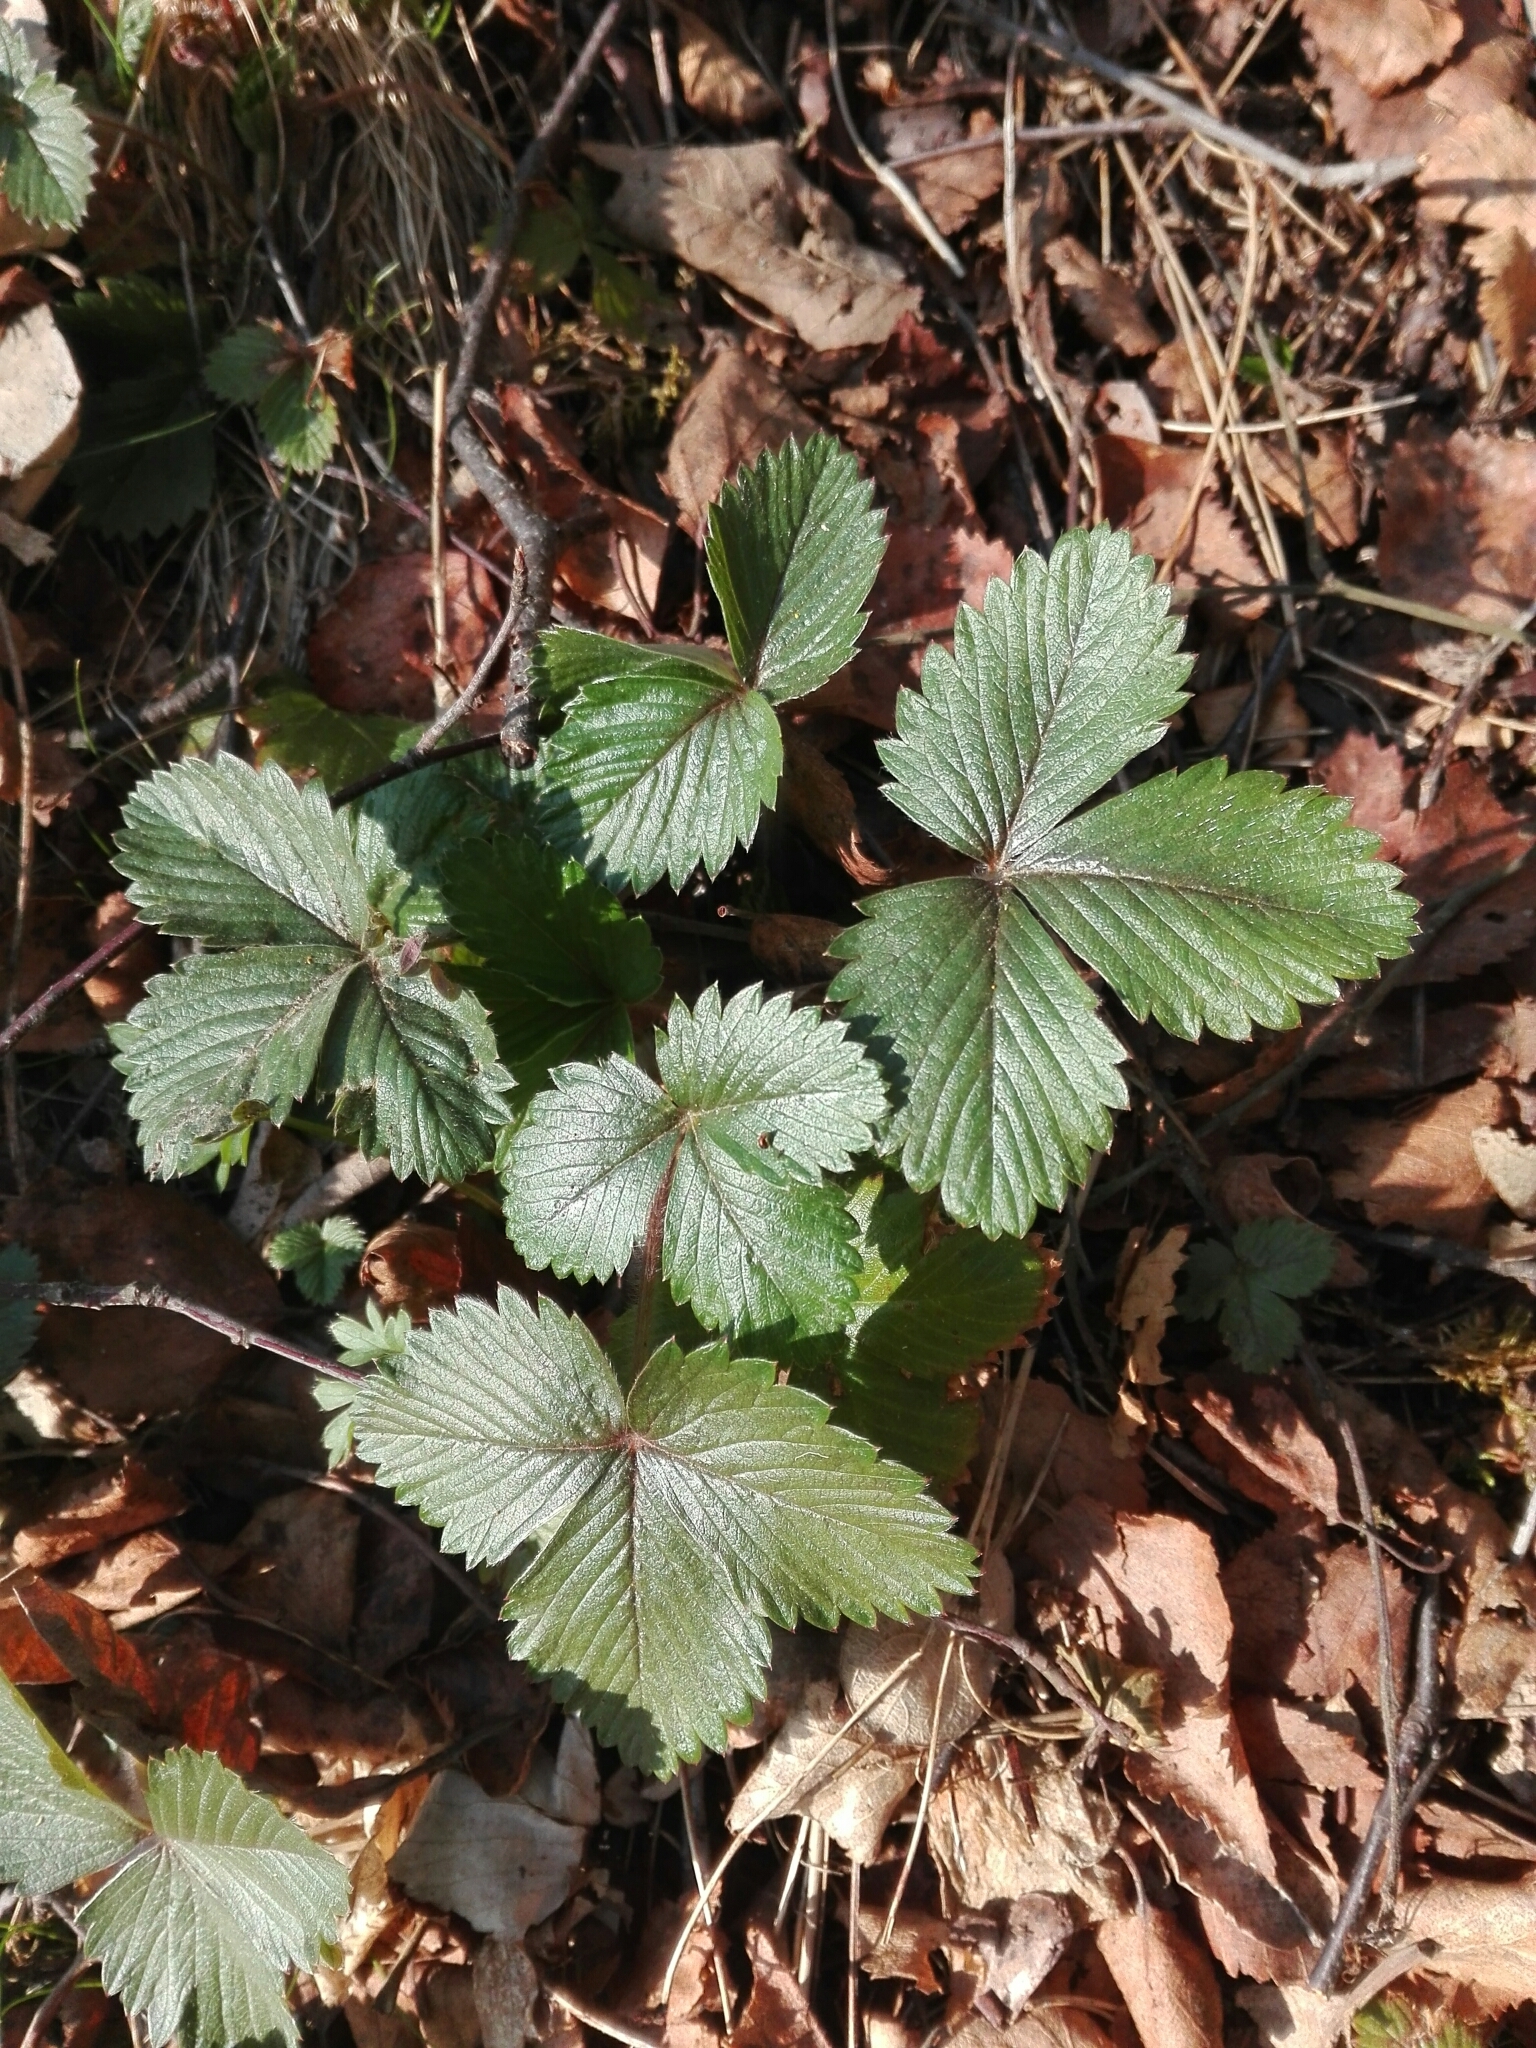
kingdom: Plantae
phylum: Tracheophyta
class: Magnoliopsida
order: Rosales
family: Rosaceae
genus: Fragaria
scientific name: Fragaria vesca
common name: Wild strawberry
